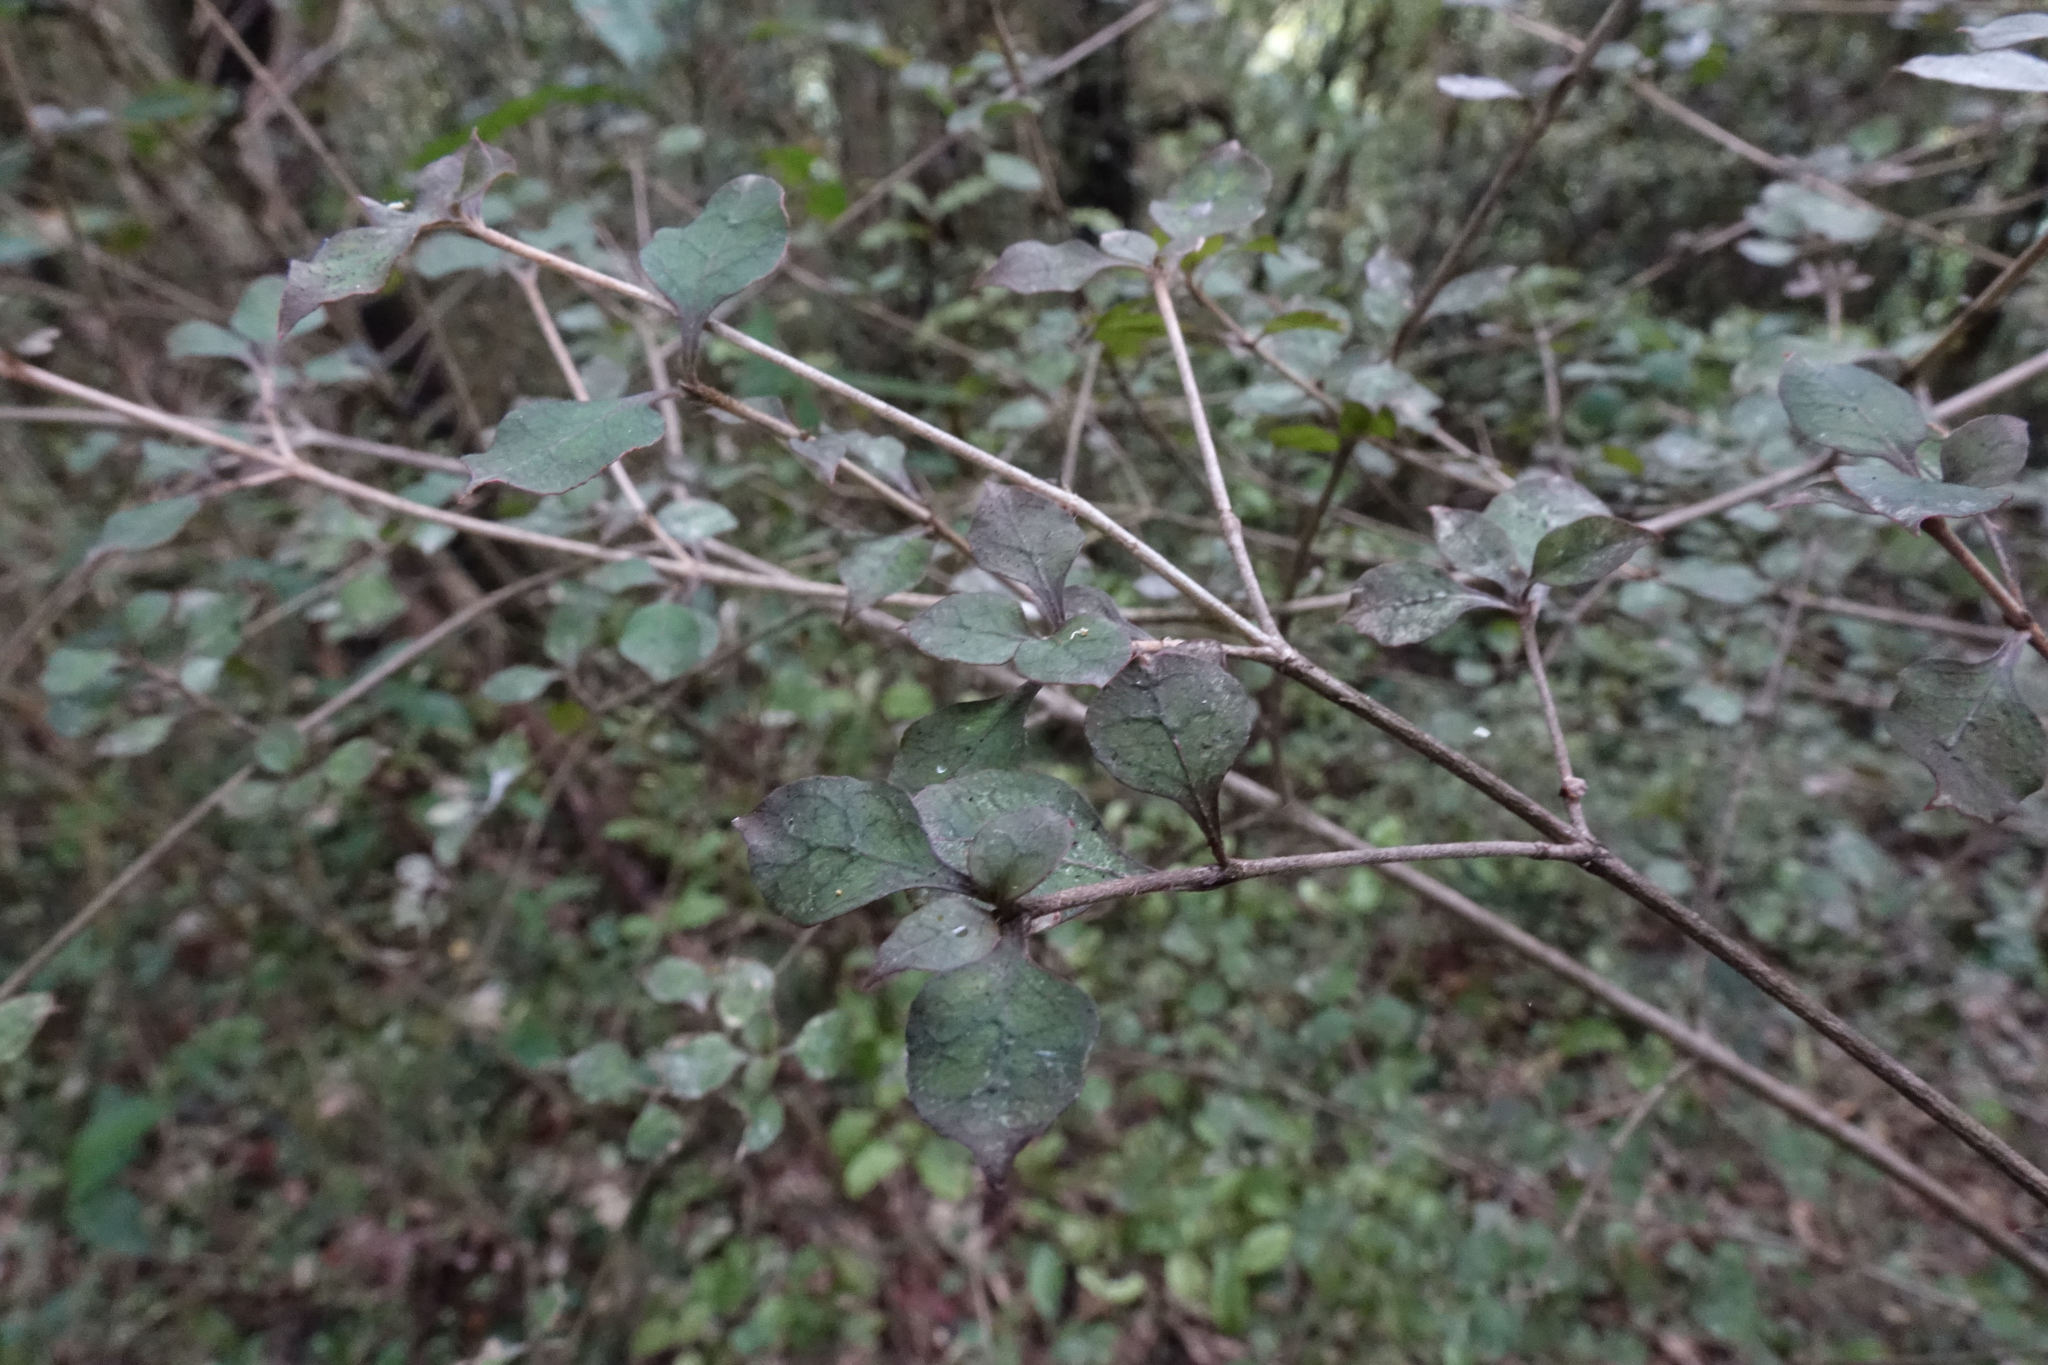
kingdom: Plantae
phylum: Tracheophyta
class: Magnoliopsida
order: Gentianales
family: Rubiaceae
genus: Coprosma
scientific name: Coprosma areolata
